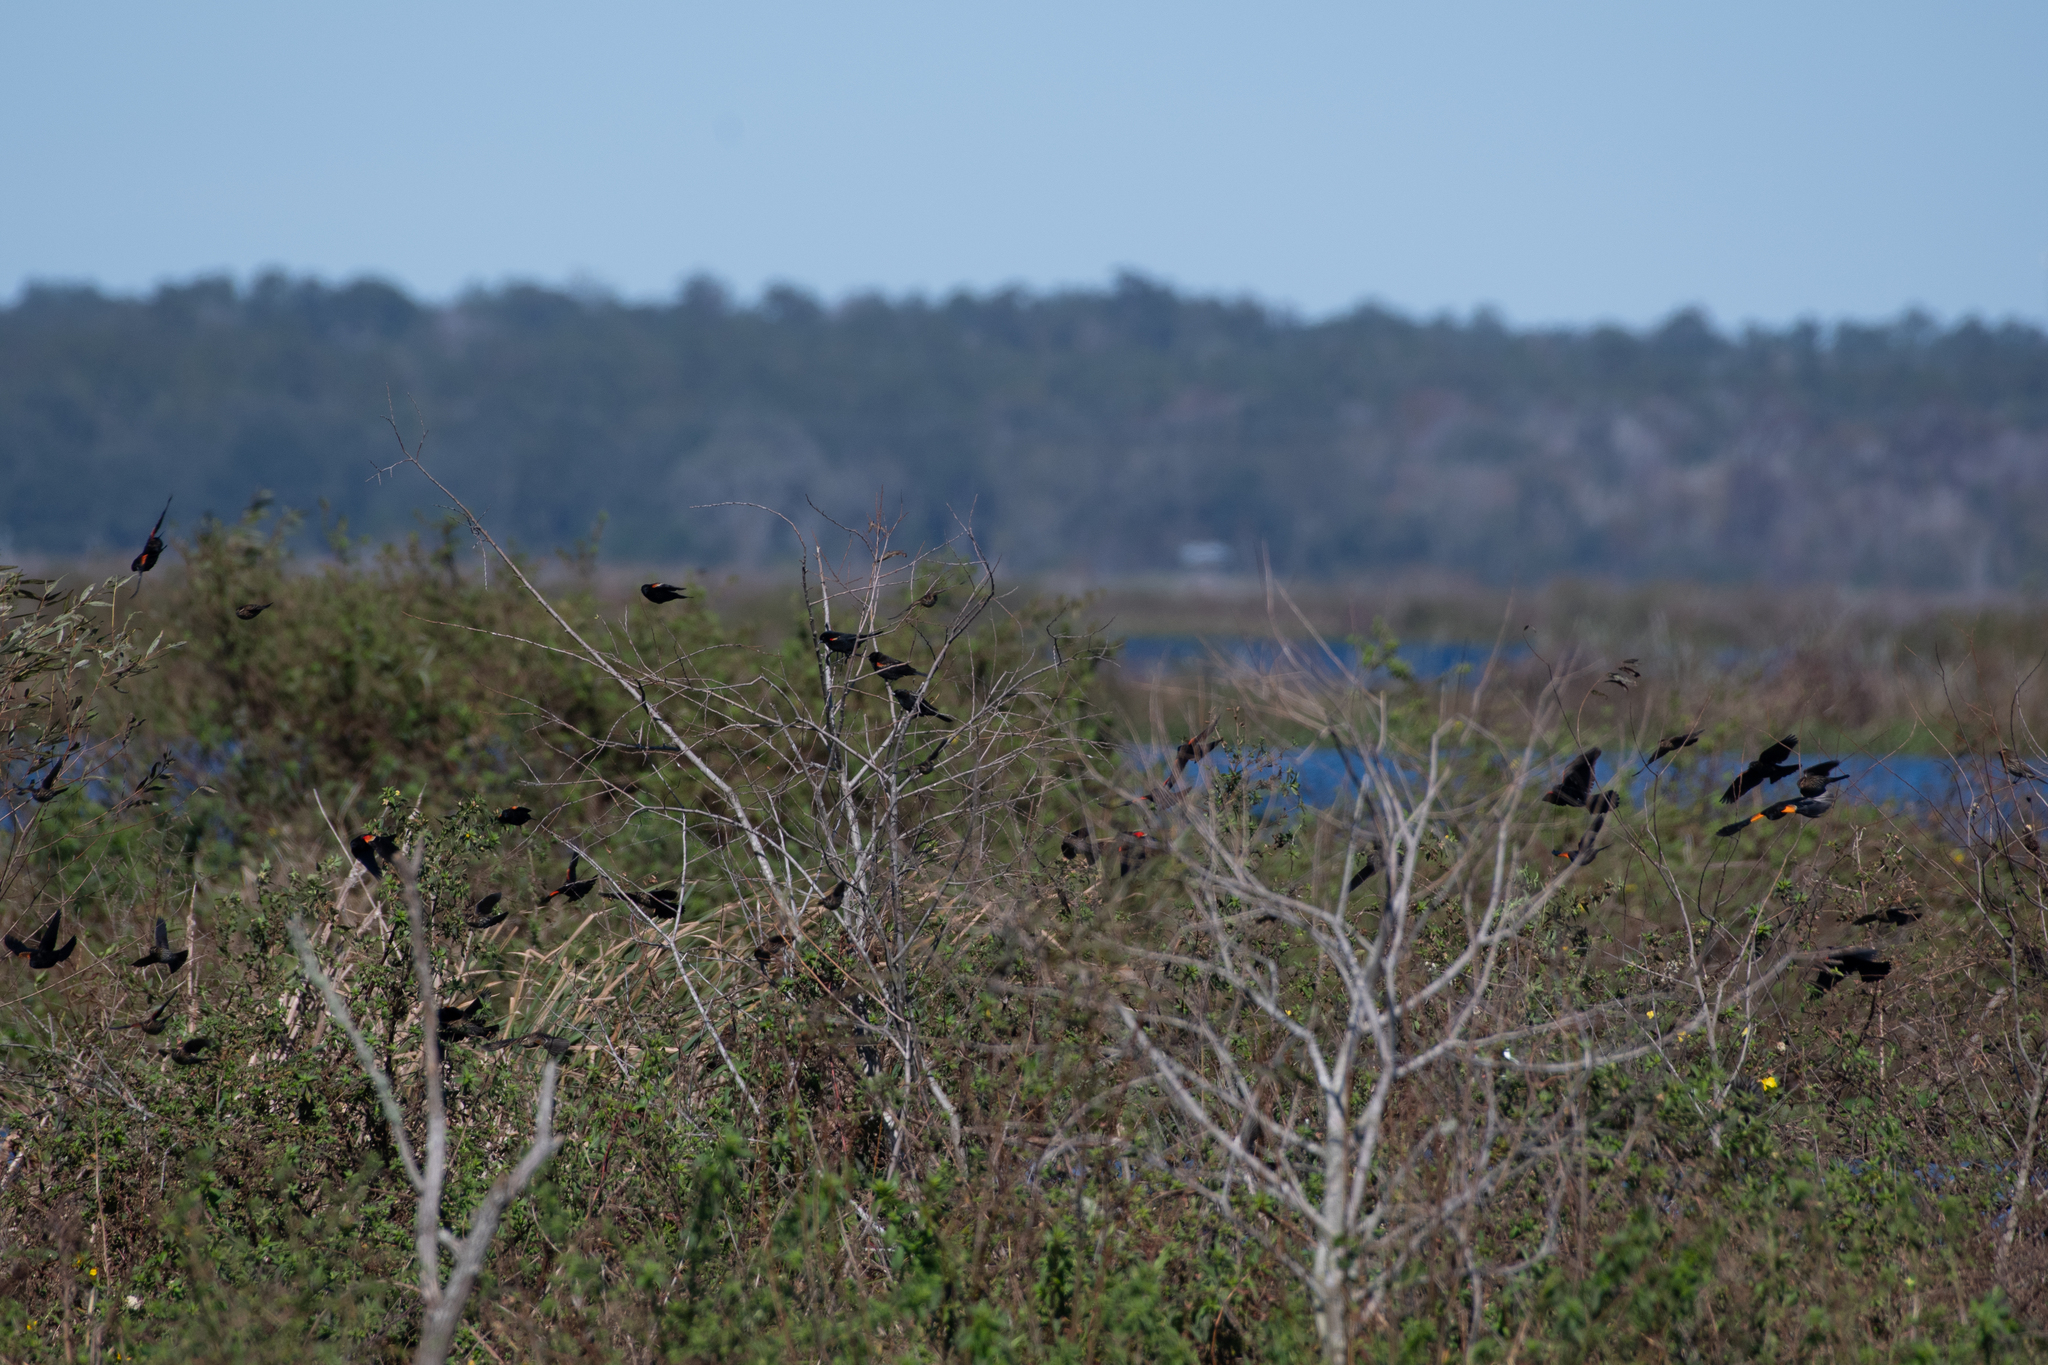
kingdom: Animalia
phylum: Chordata
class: Aves
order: Passeriformes
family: Icteridae
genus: Agelaius
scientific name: Agelaius phoeniceus
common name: Red-winged blackbird
